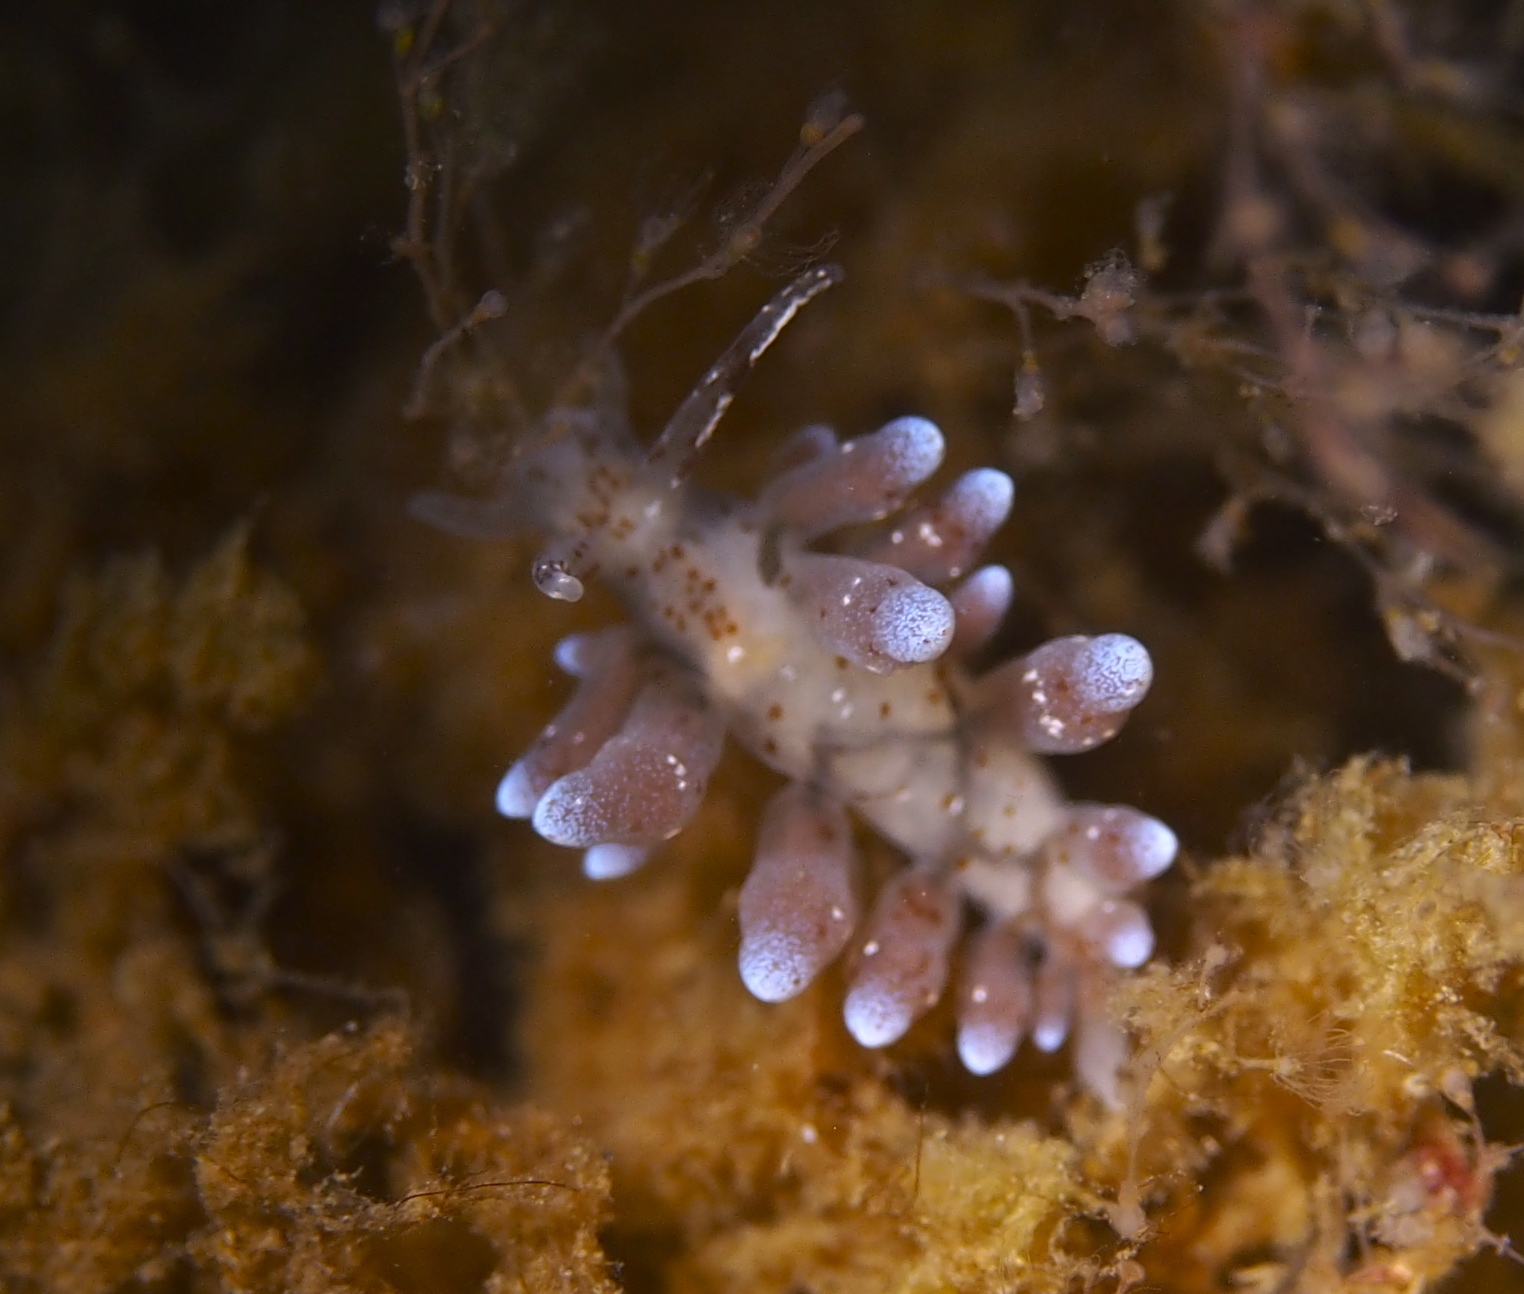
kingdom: Animalia
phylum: Mollusca
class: Gastropoda
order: Nudibranchia
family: Eubranchidae
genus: Eubranchus
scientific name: Eubranchus rupium
